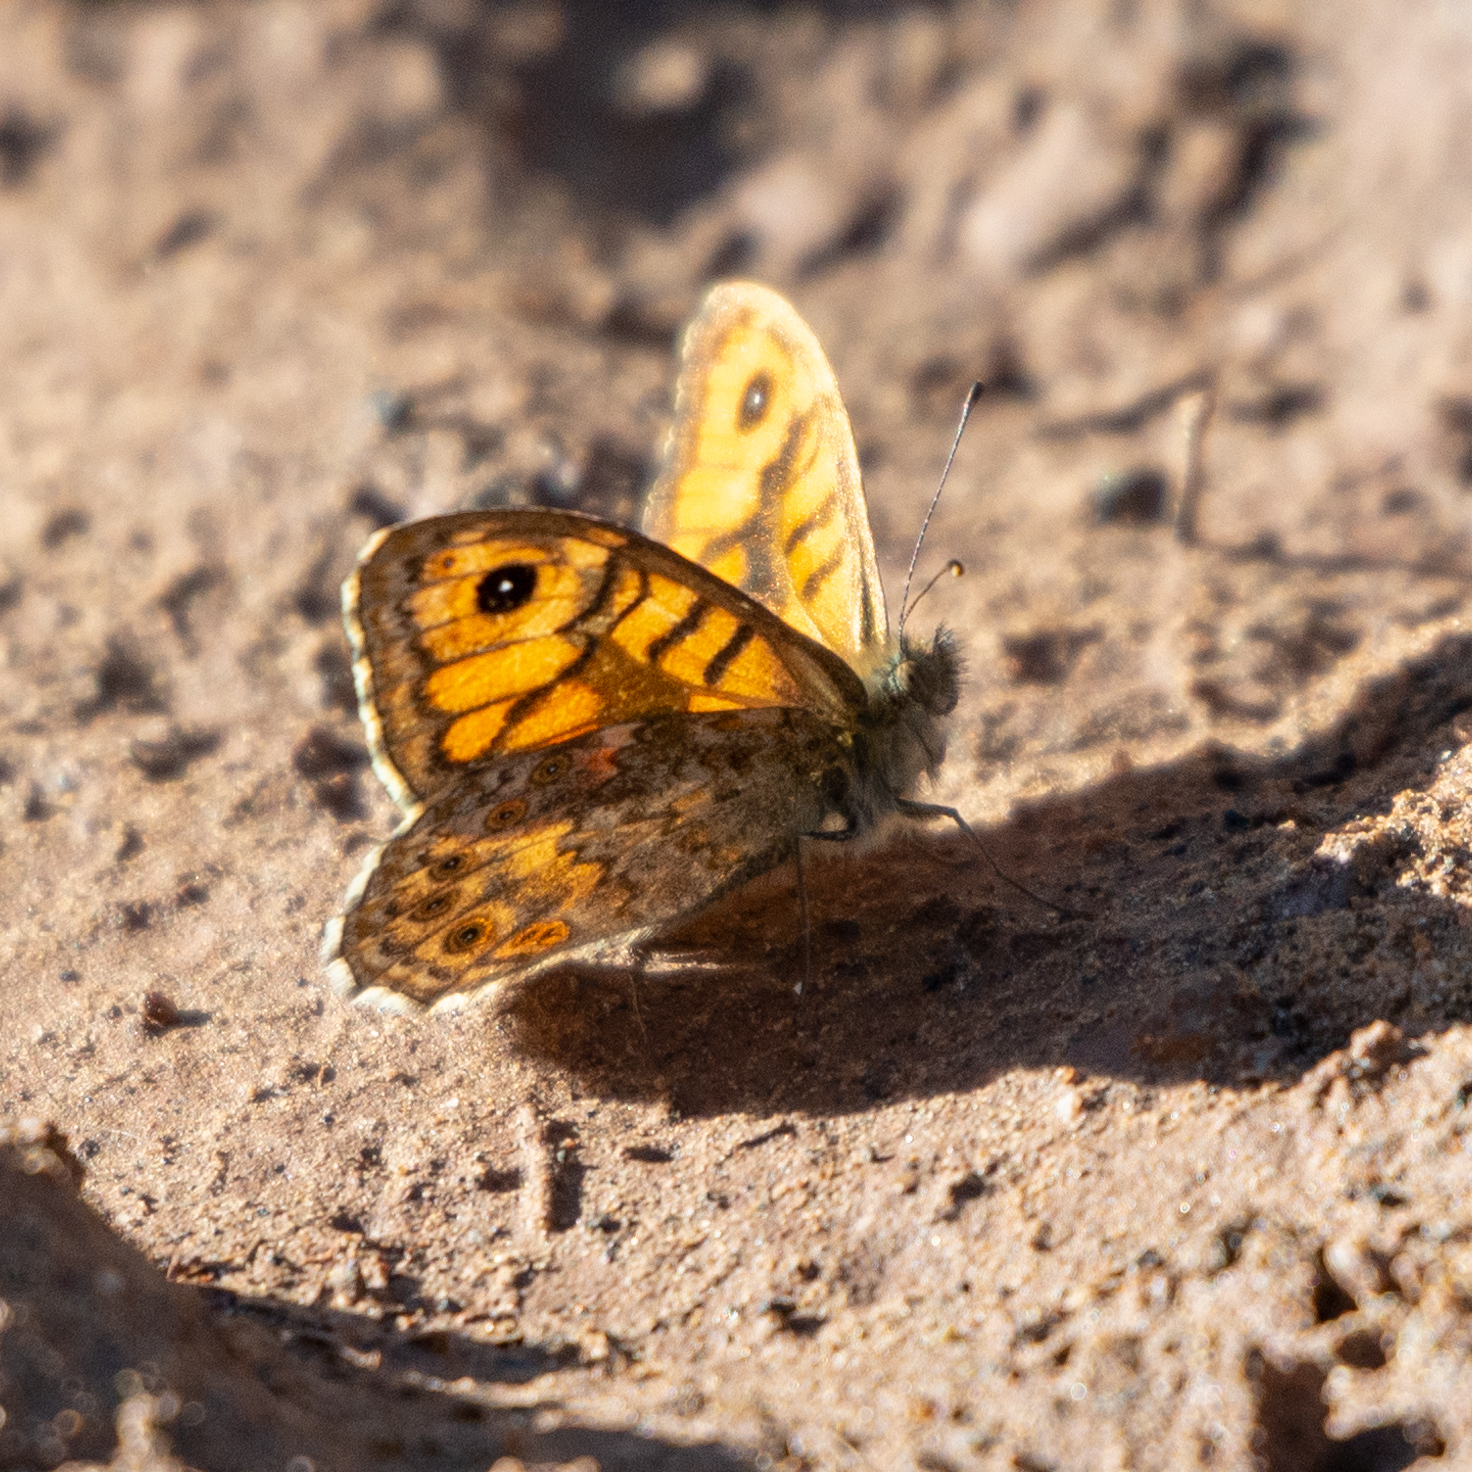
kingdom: Animalia
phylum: Arthropoda
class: Insecta
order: Lepidoptera
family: Nymphalidae
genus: Pararge
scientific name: Pararge Lasiommata megera
